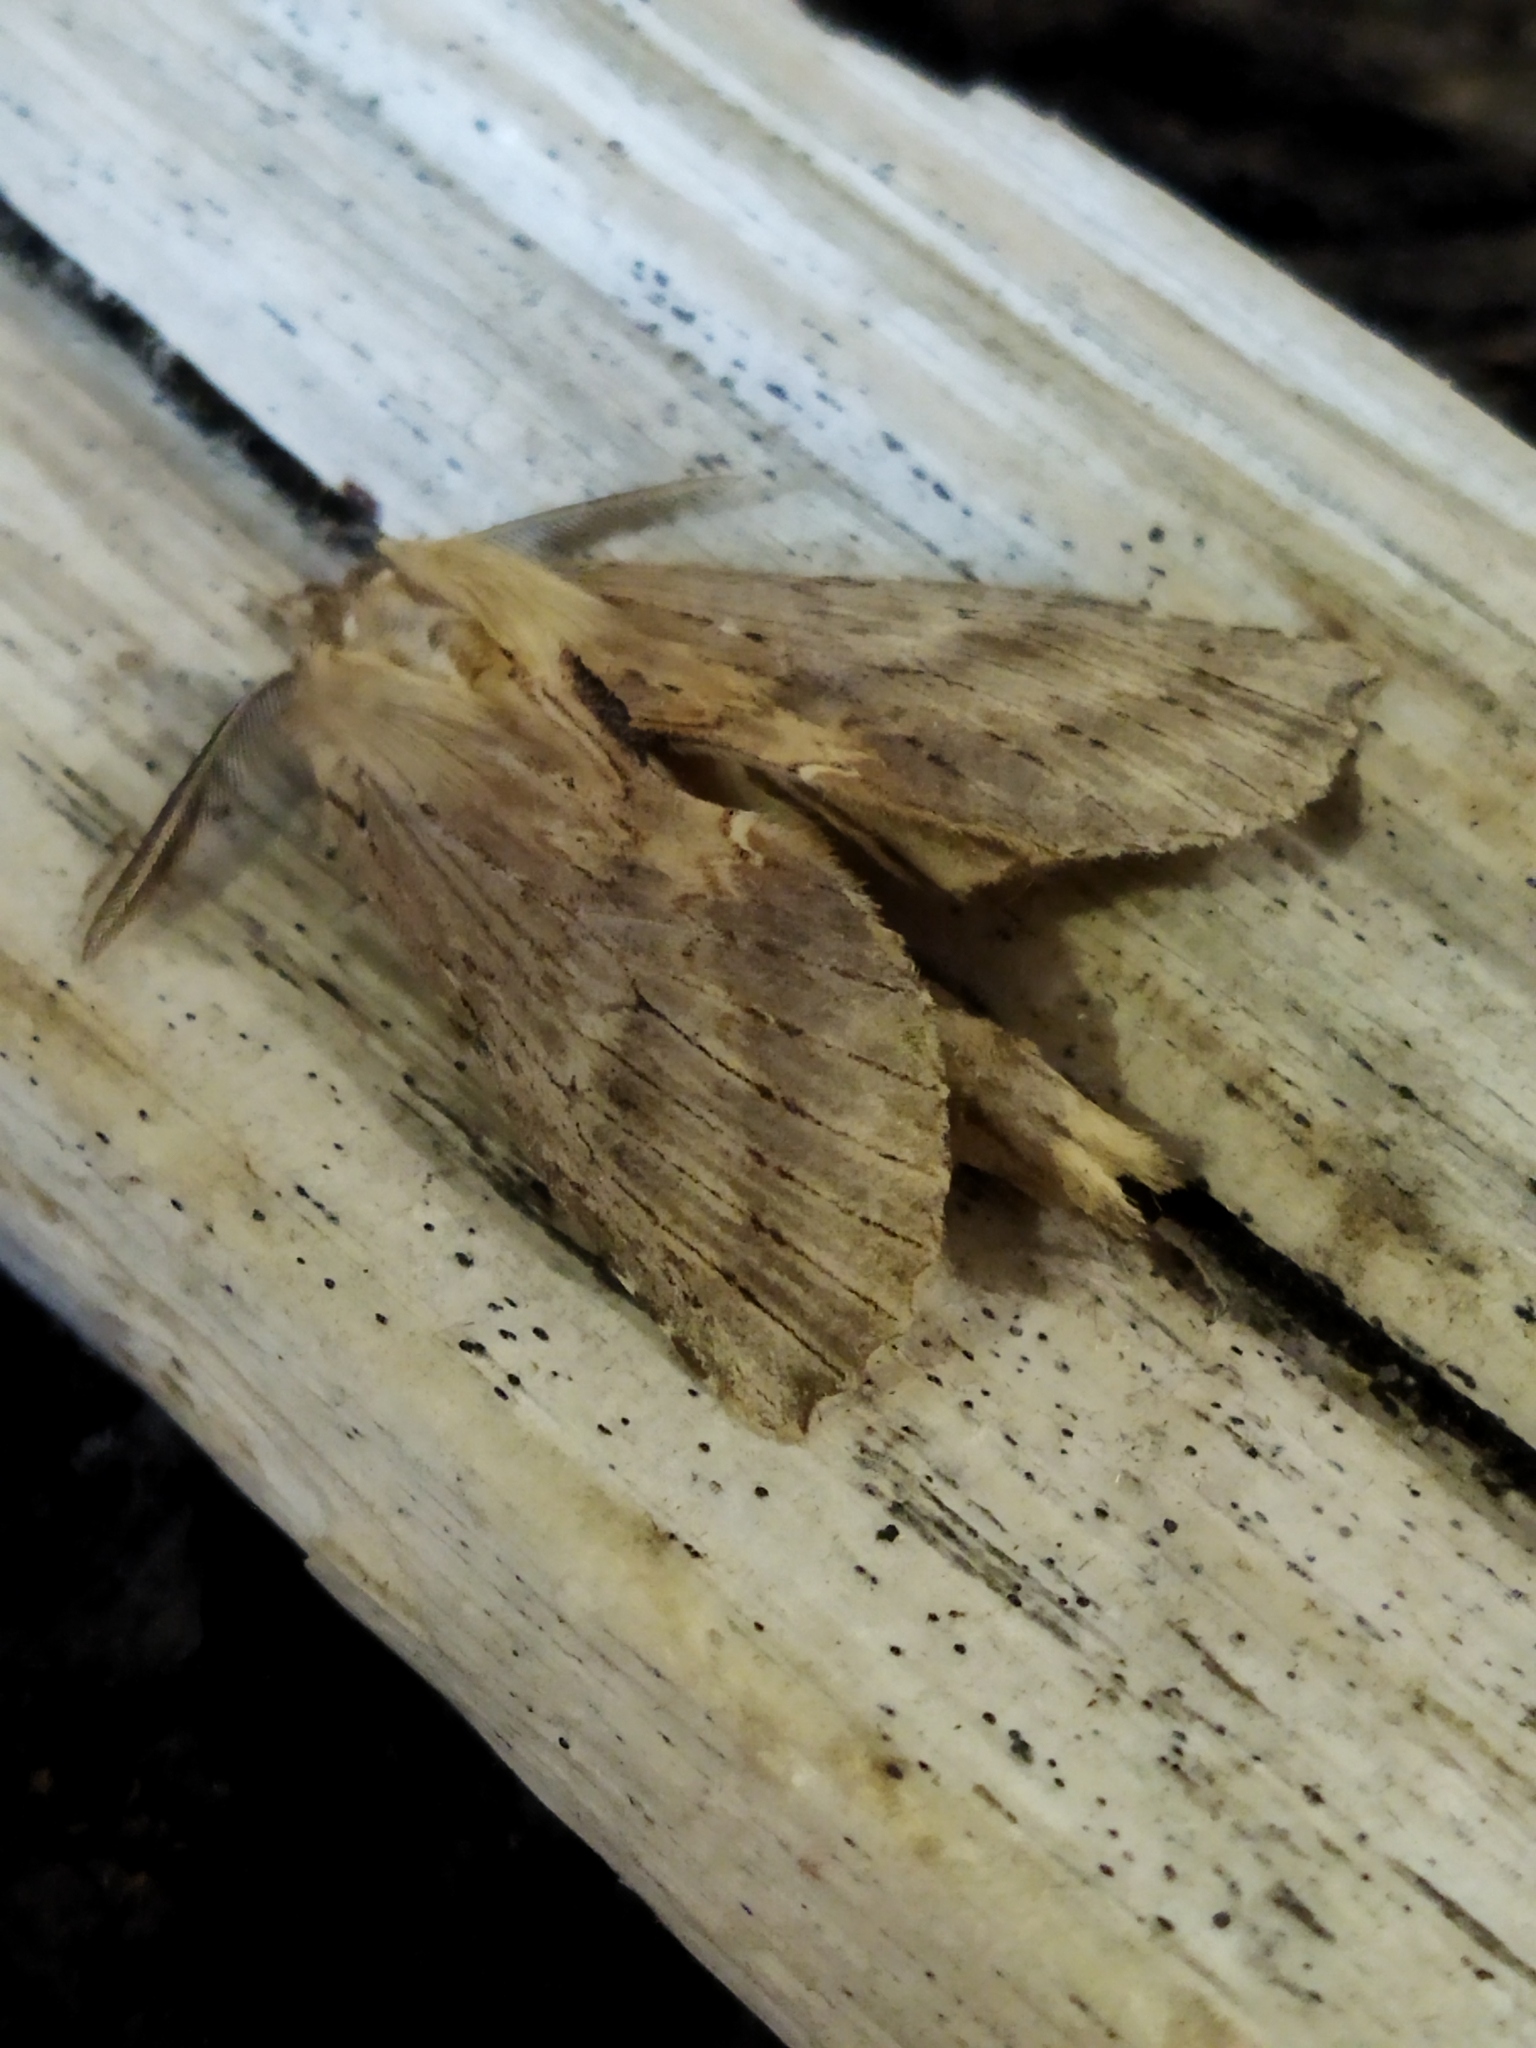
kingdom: Animalia
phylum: Arthropoda
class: Insecta
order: Lepidoptera
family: Notodontidae
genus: Pterostoma
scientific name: Pterostoma palpina
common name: Pale prominent
